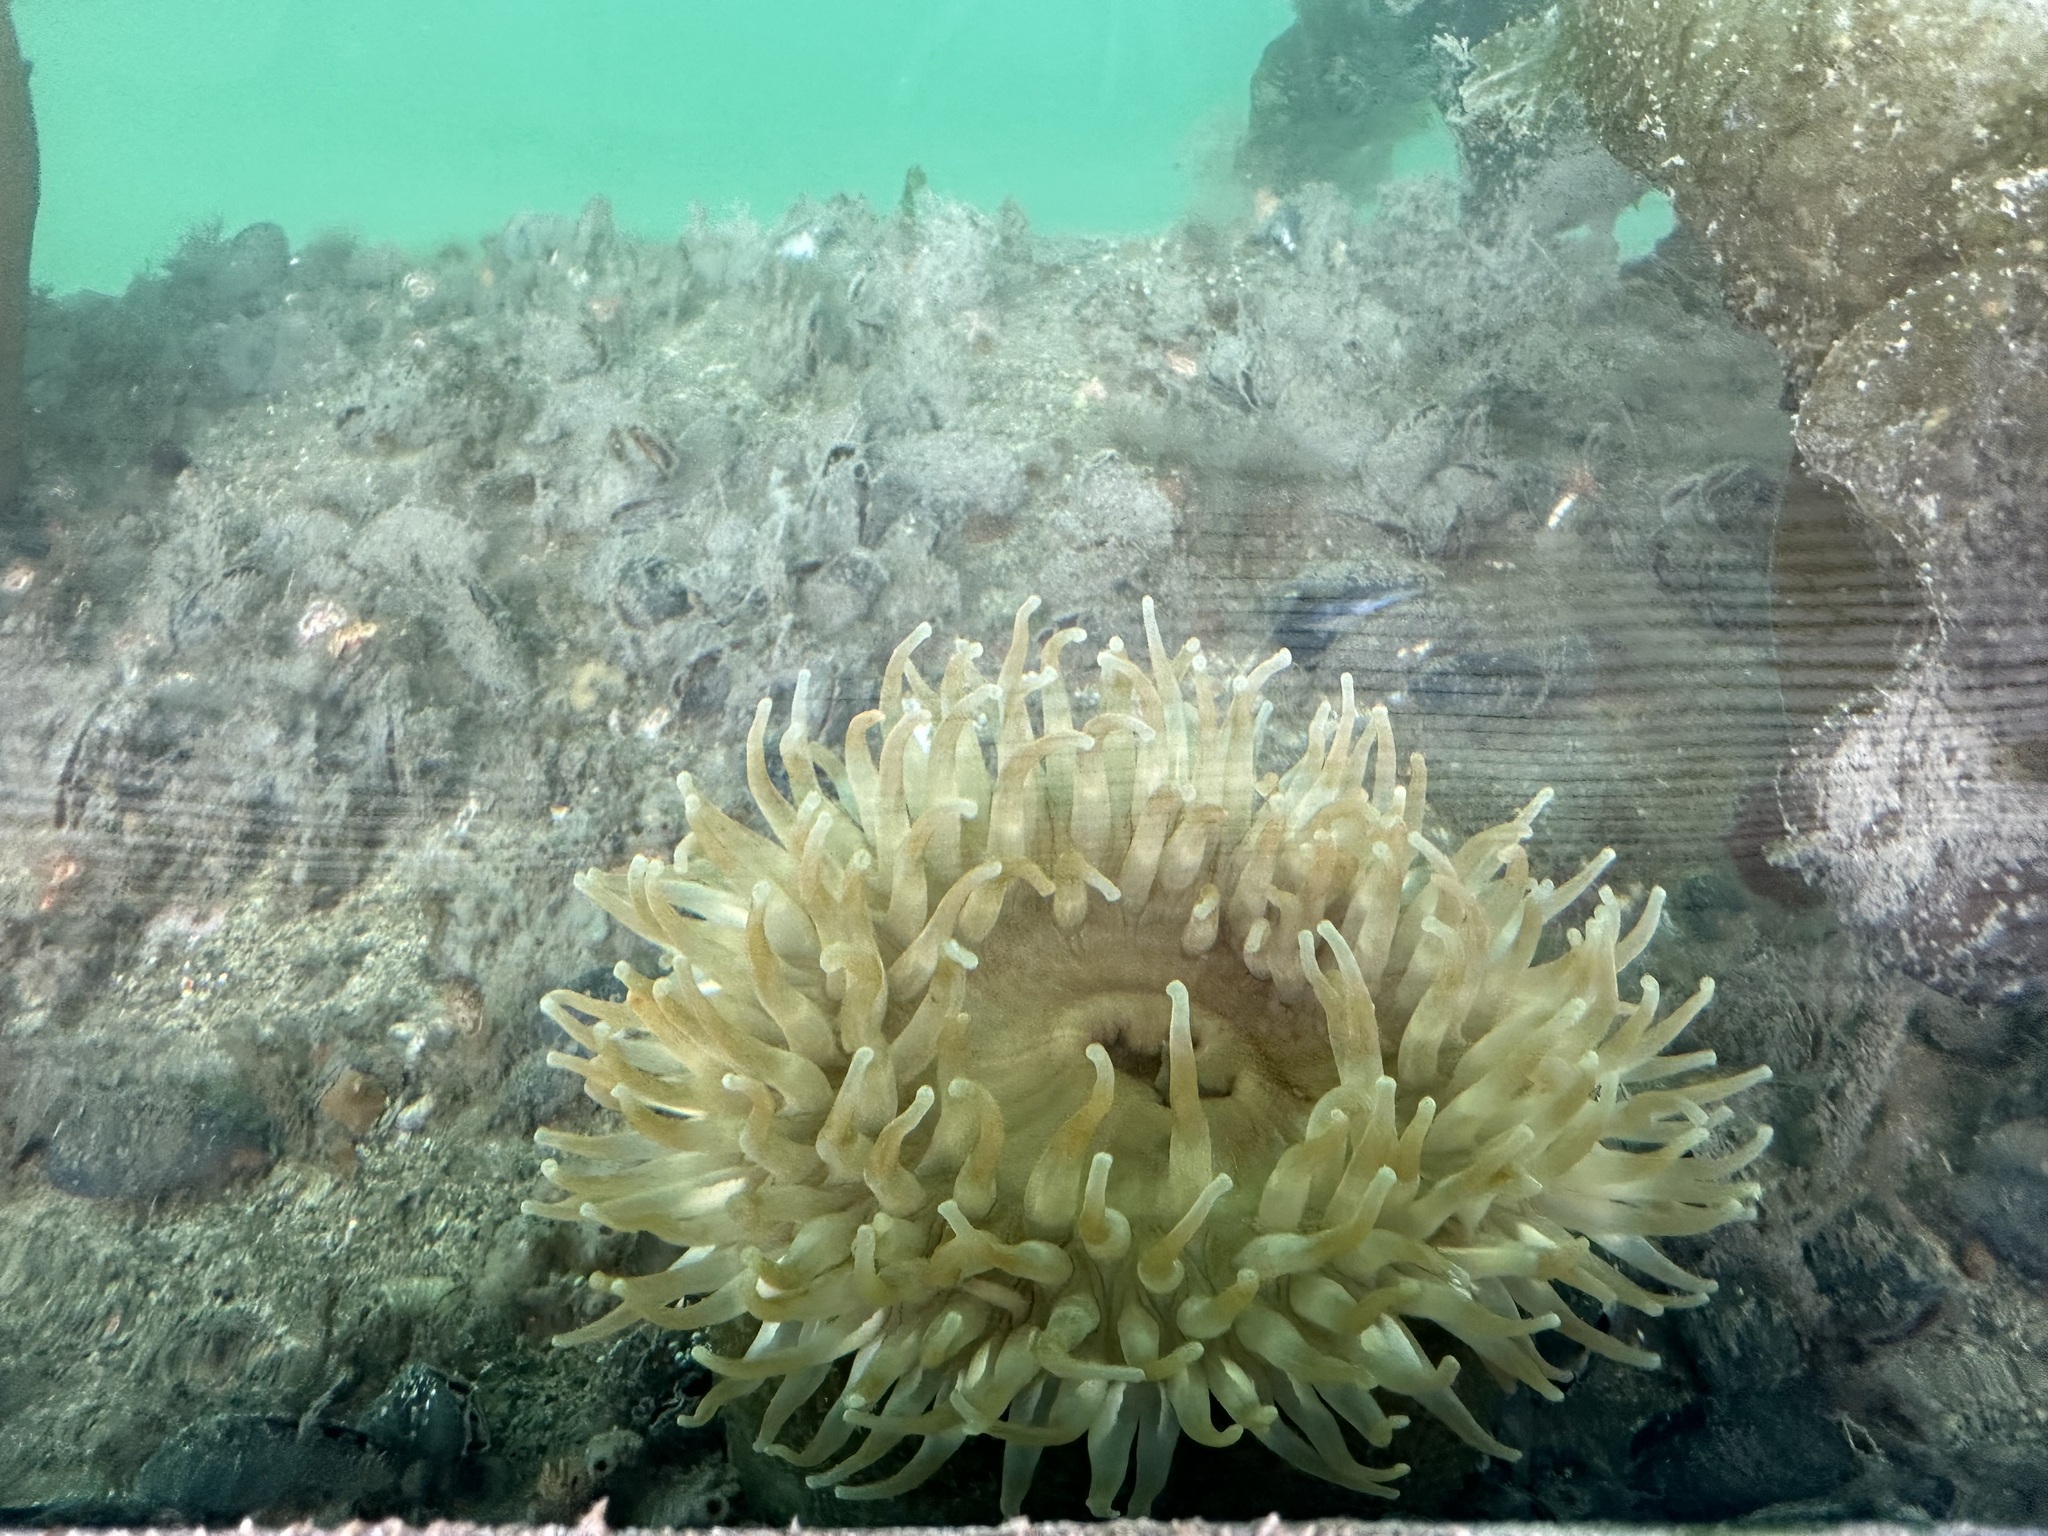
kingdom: Animalia
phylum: Cnidaria
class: Anthozoa
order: Actiniaria
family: Actiniidae
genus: Urticina
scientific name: Urticina grebelnyi
